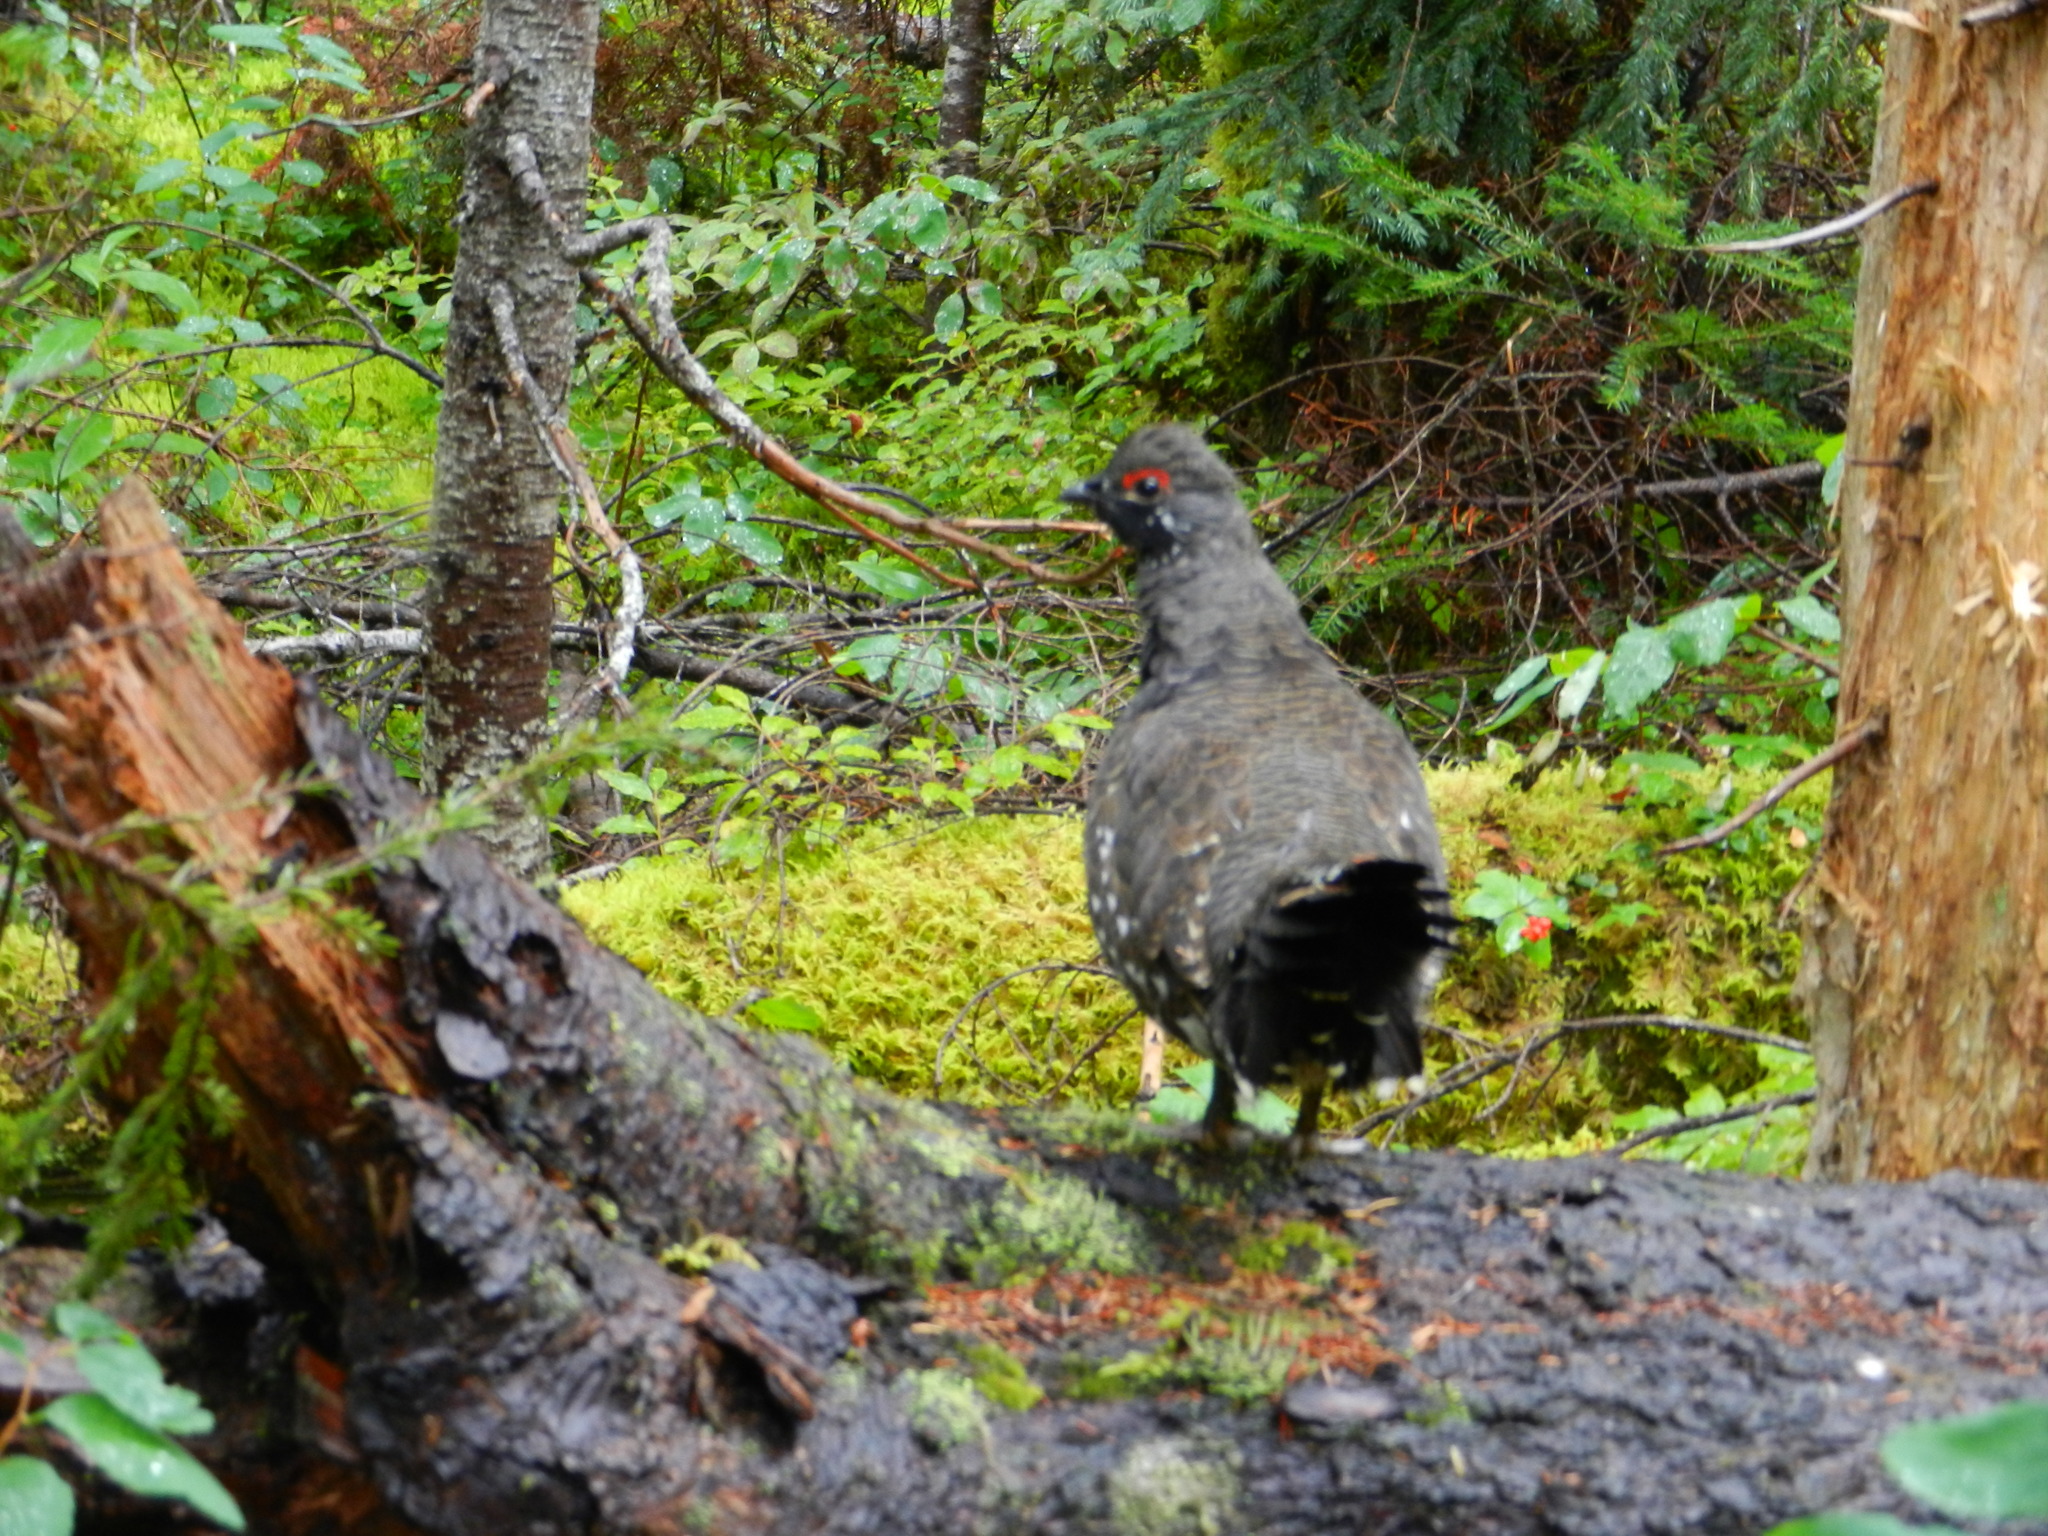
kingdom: Animalia
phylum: Chordata
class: Aves
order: Galliformes
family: Phasianidae
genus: Canachites
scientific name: Canachites canadensis
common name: Spruce grouse
